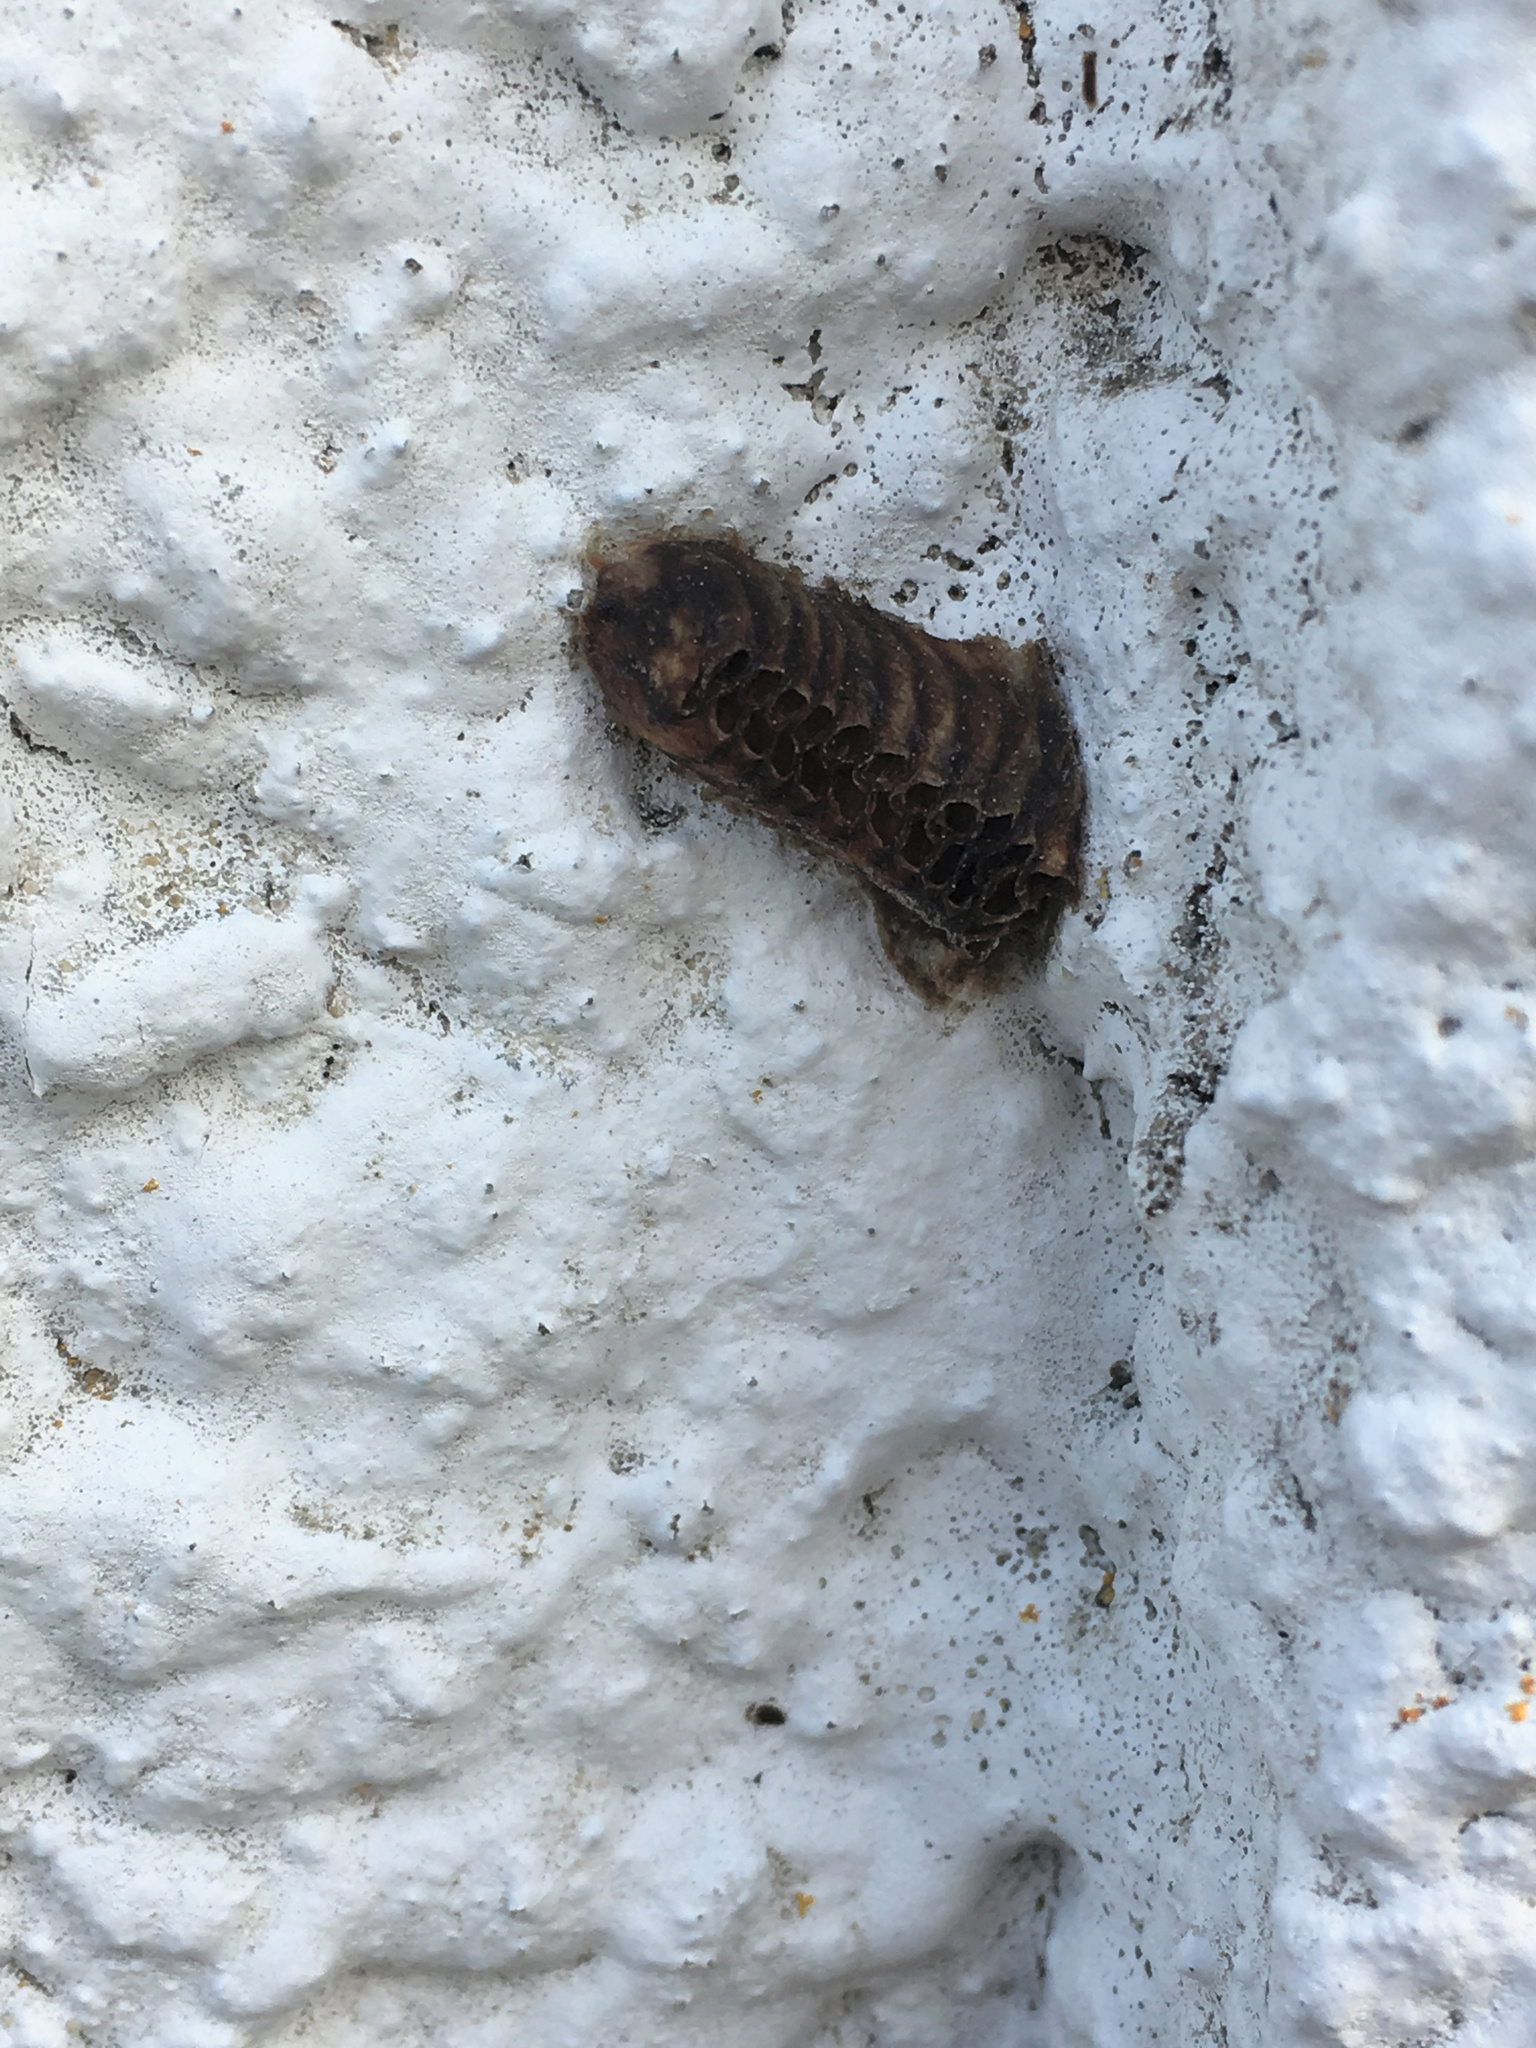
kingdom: Animalia
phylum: Arthropoda
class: Insecta
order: Mantodea
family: Mantidae
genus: Orthodera
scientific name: Orthodera novaezealandiae
